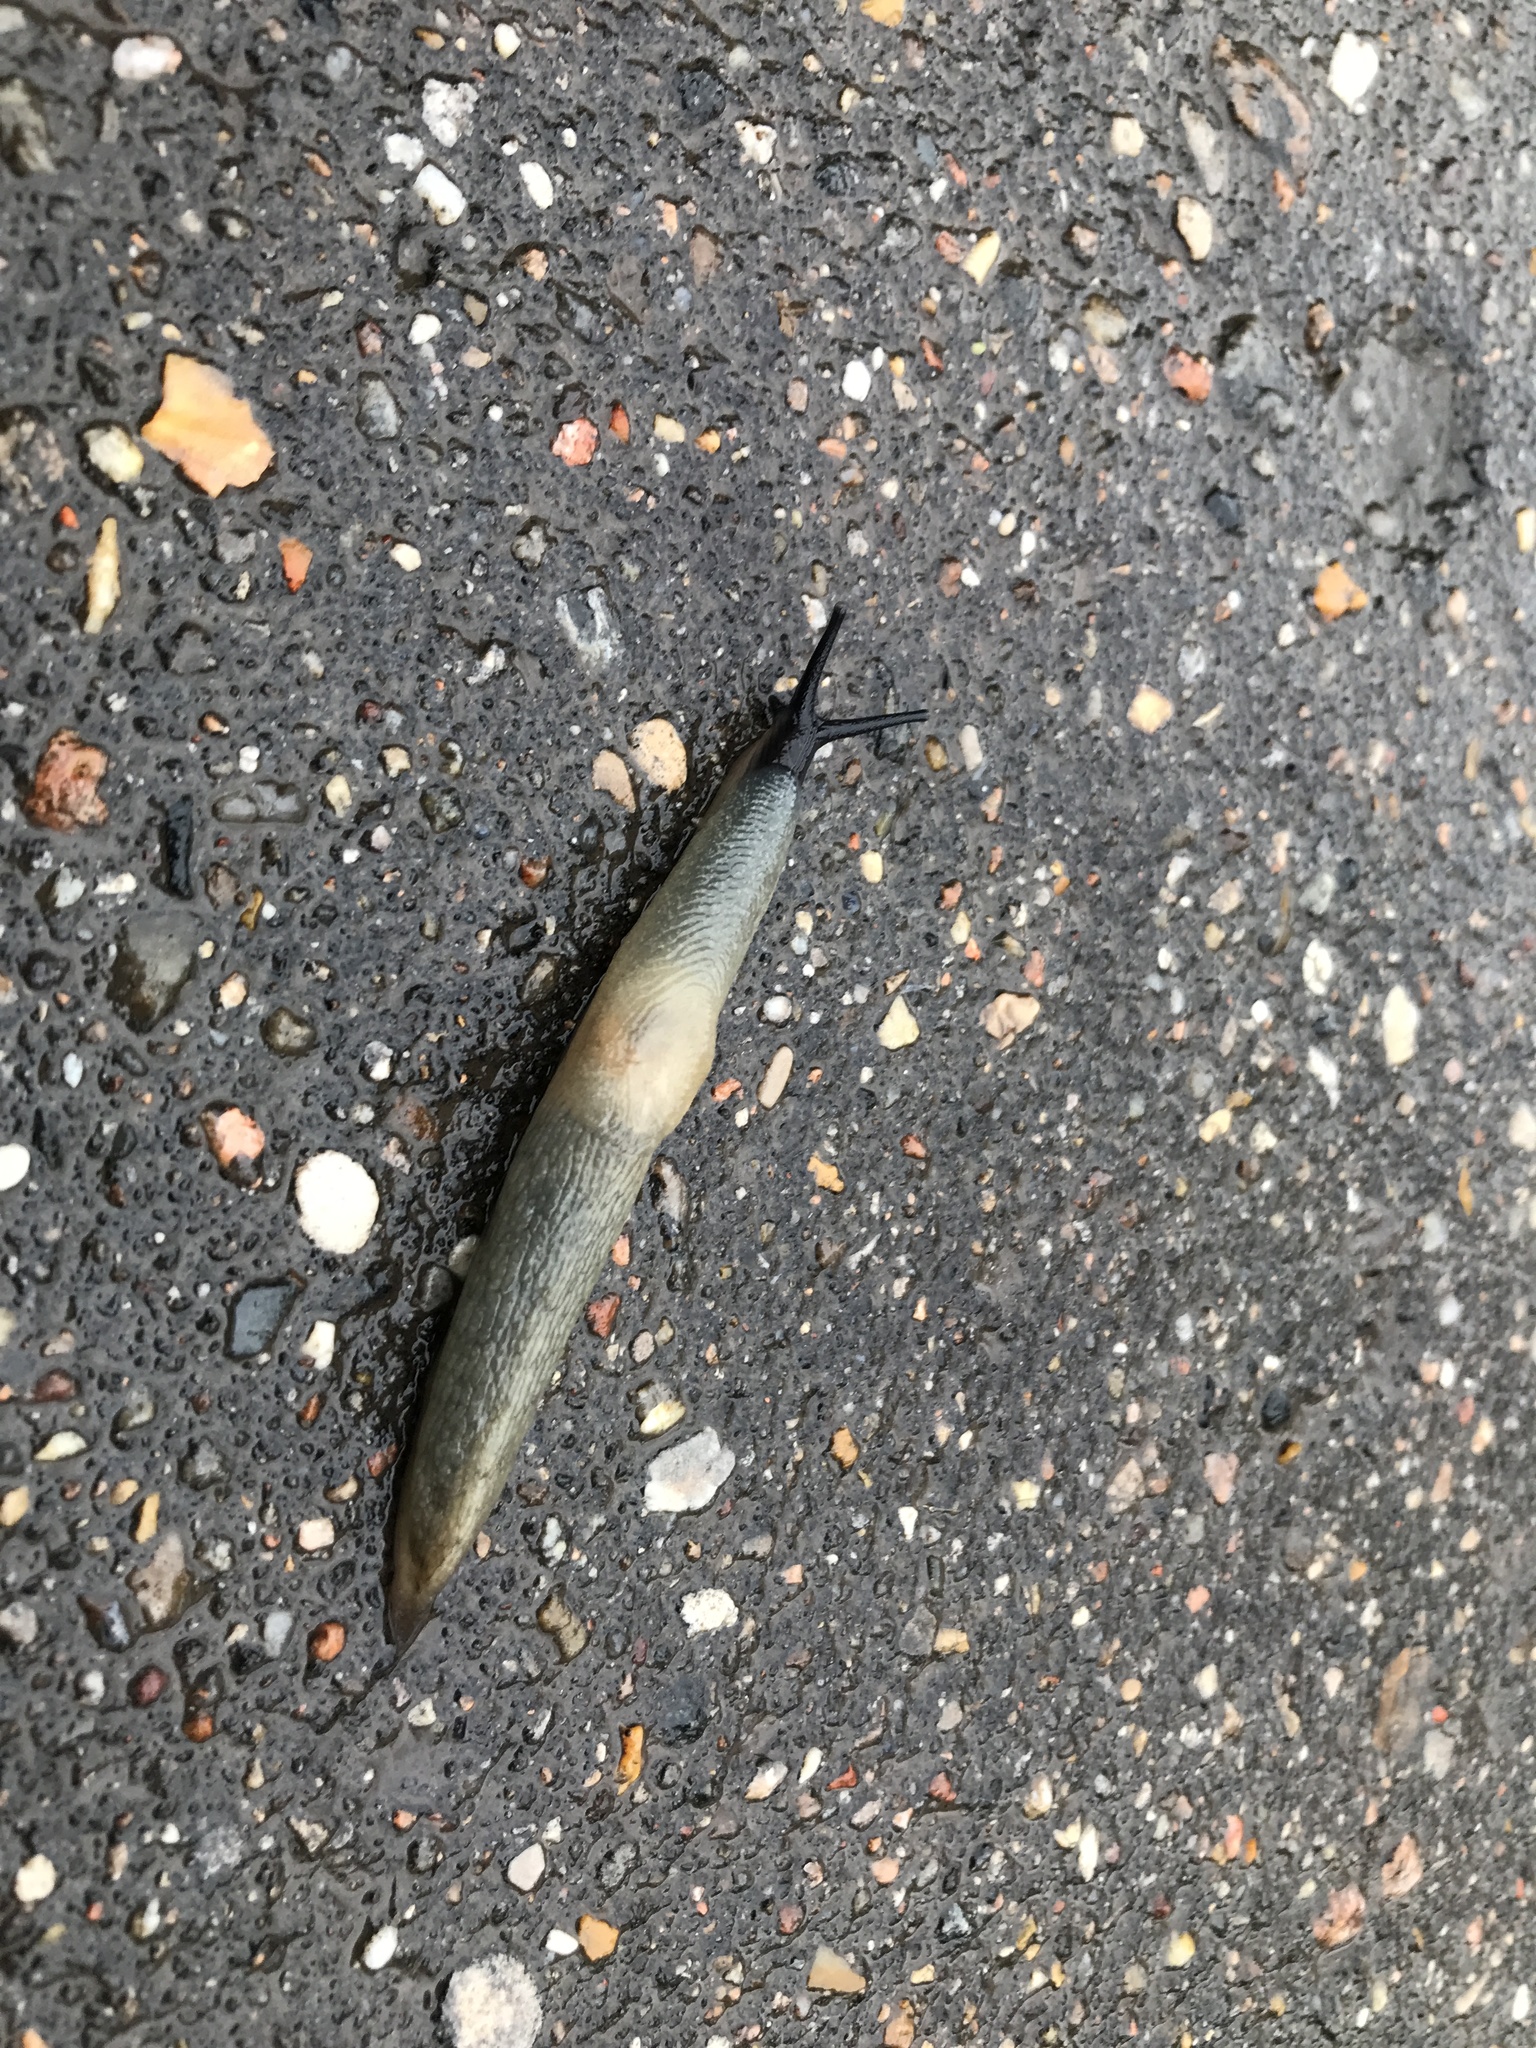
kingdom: Animalia
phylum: Mollusca
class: Gastropoda
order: Stylommatophora
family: Agriolimacidae
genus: Krynickillus
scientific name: Krynickillus melanocephalus
